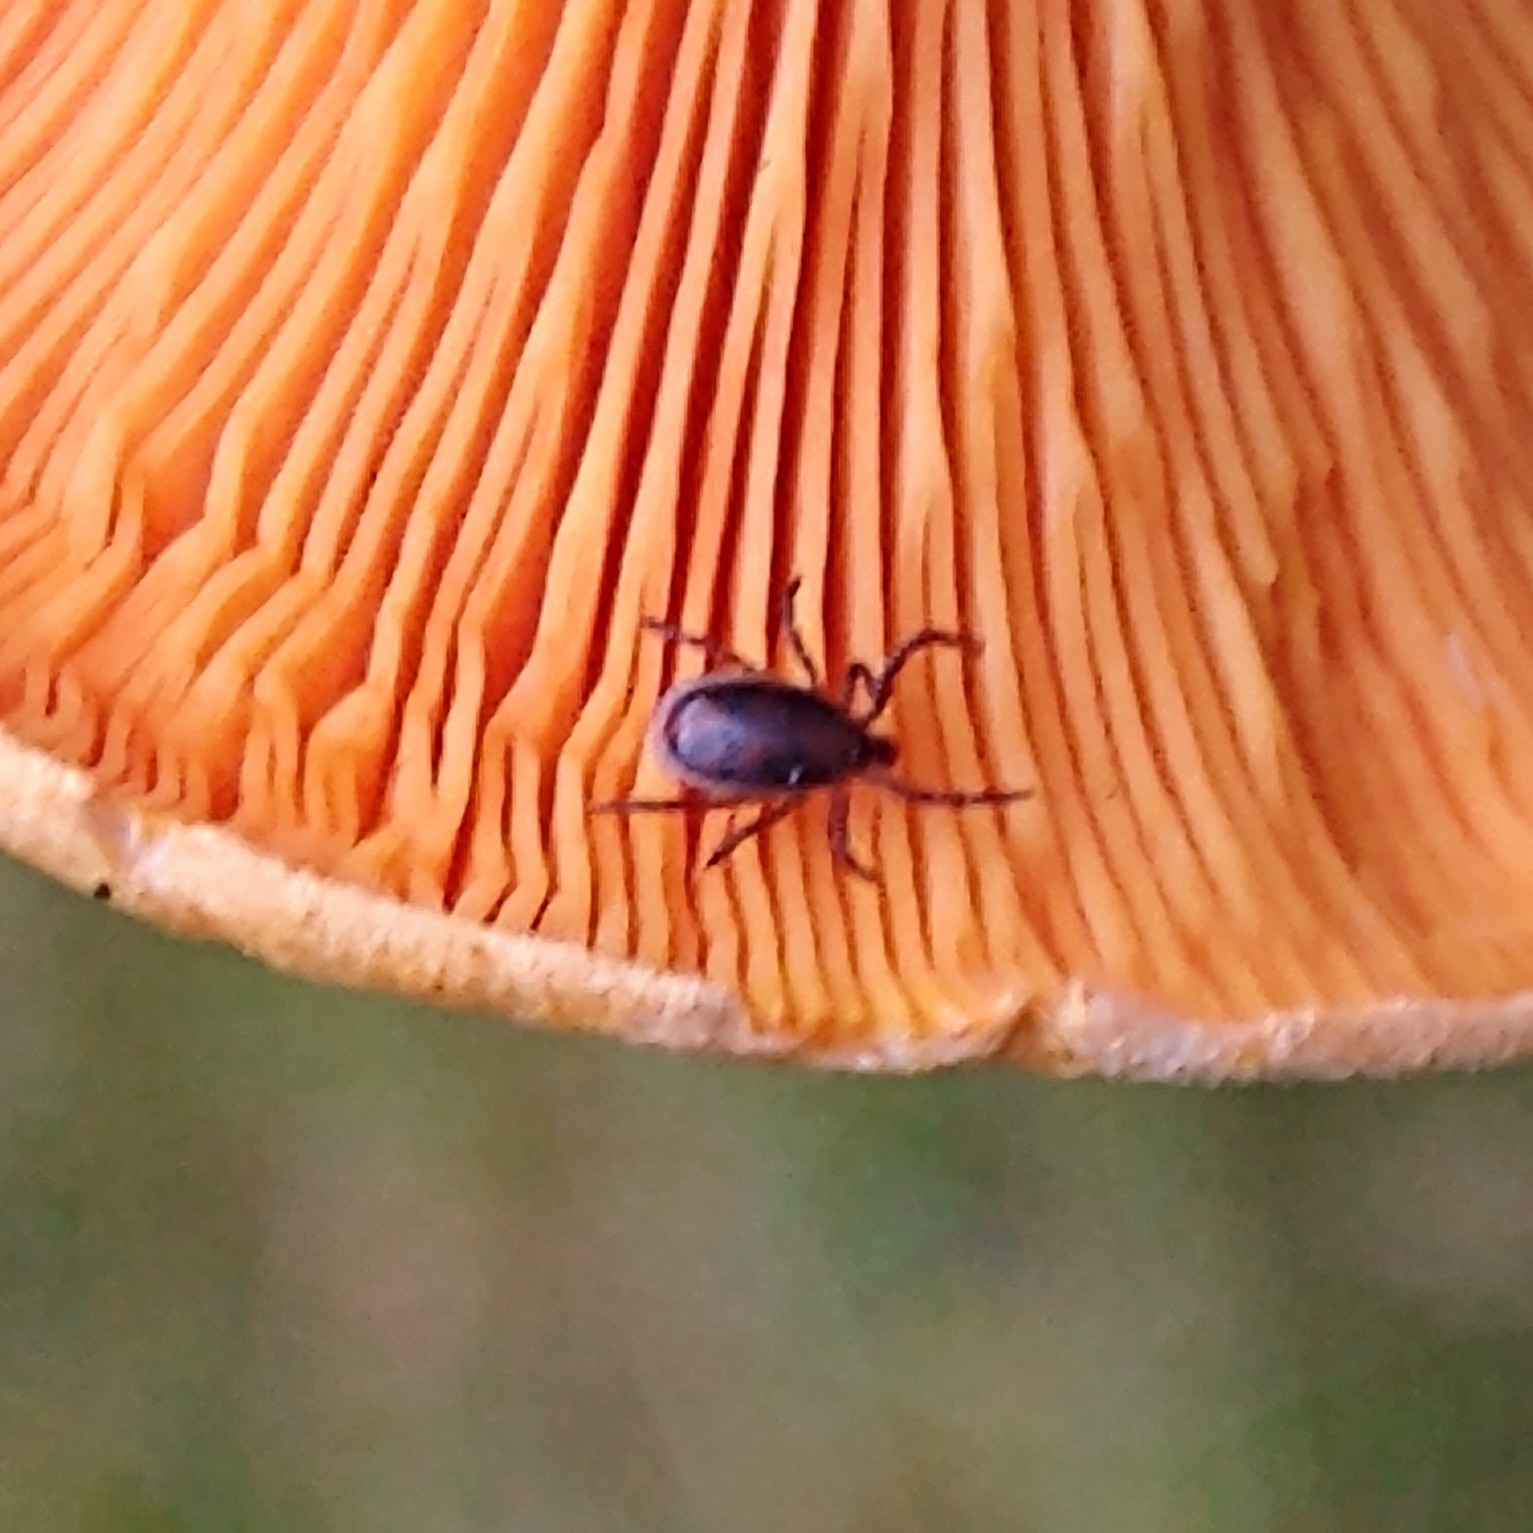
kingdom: Animalia
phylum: Arthropoda
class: Arachnida
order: Ixodida
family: Ixodidae
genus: Ixodes
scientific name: Ixodes ricinus
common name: Castor bean tick
